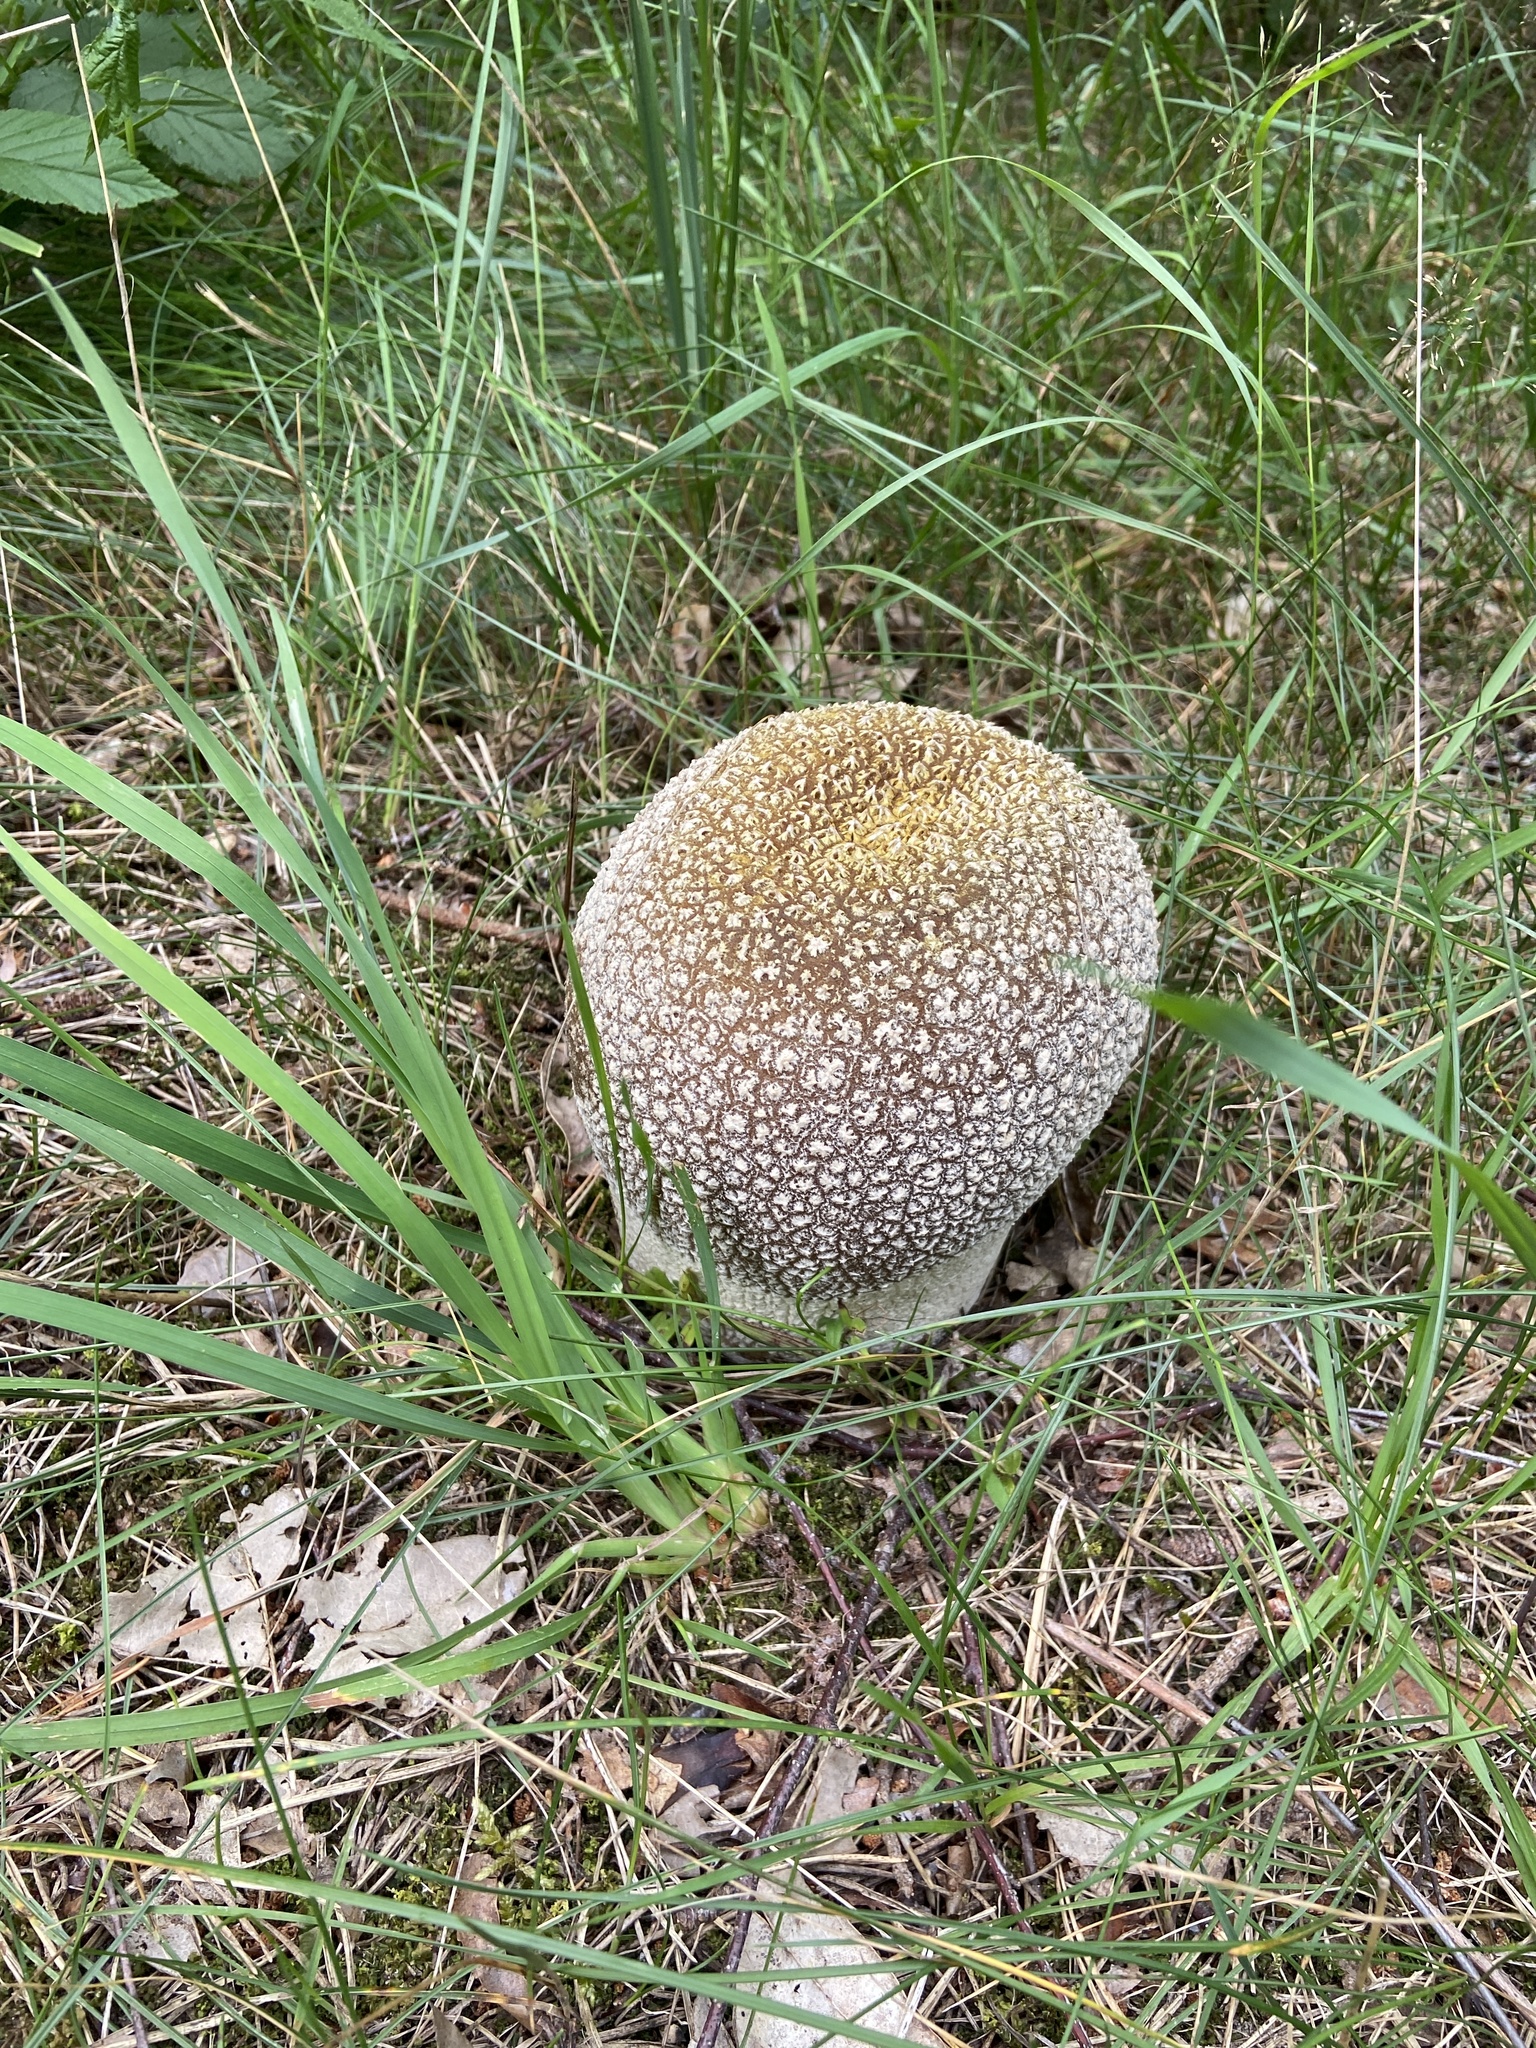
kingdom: Fungi
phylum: Basidiomycota
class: Agaricomycetes
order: Agaricales
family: Lycoperdaceae
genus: Bovistella
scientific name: Bovistella utriformis
